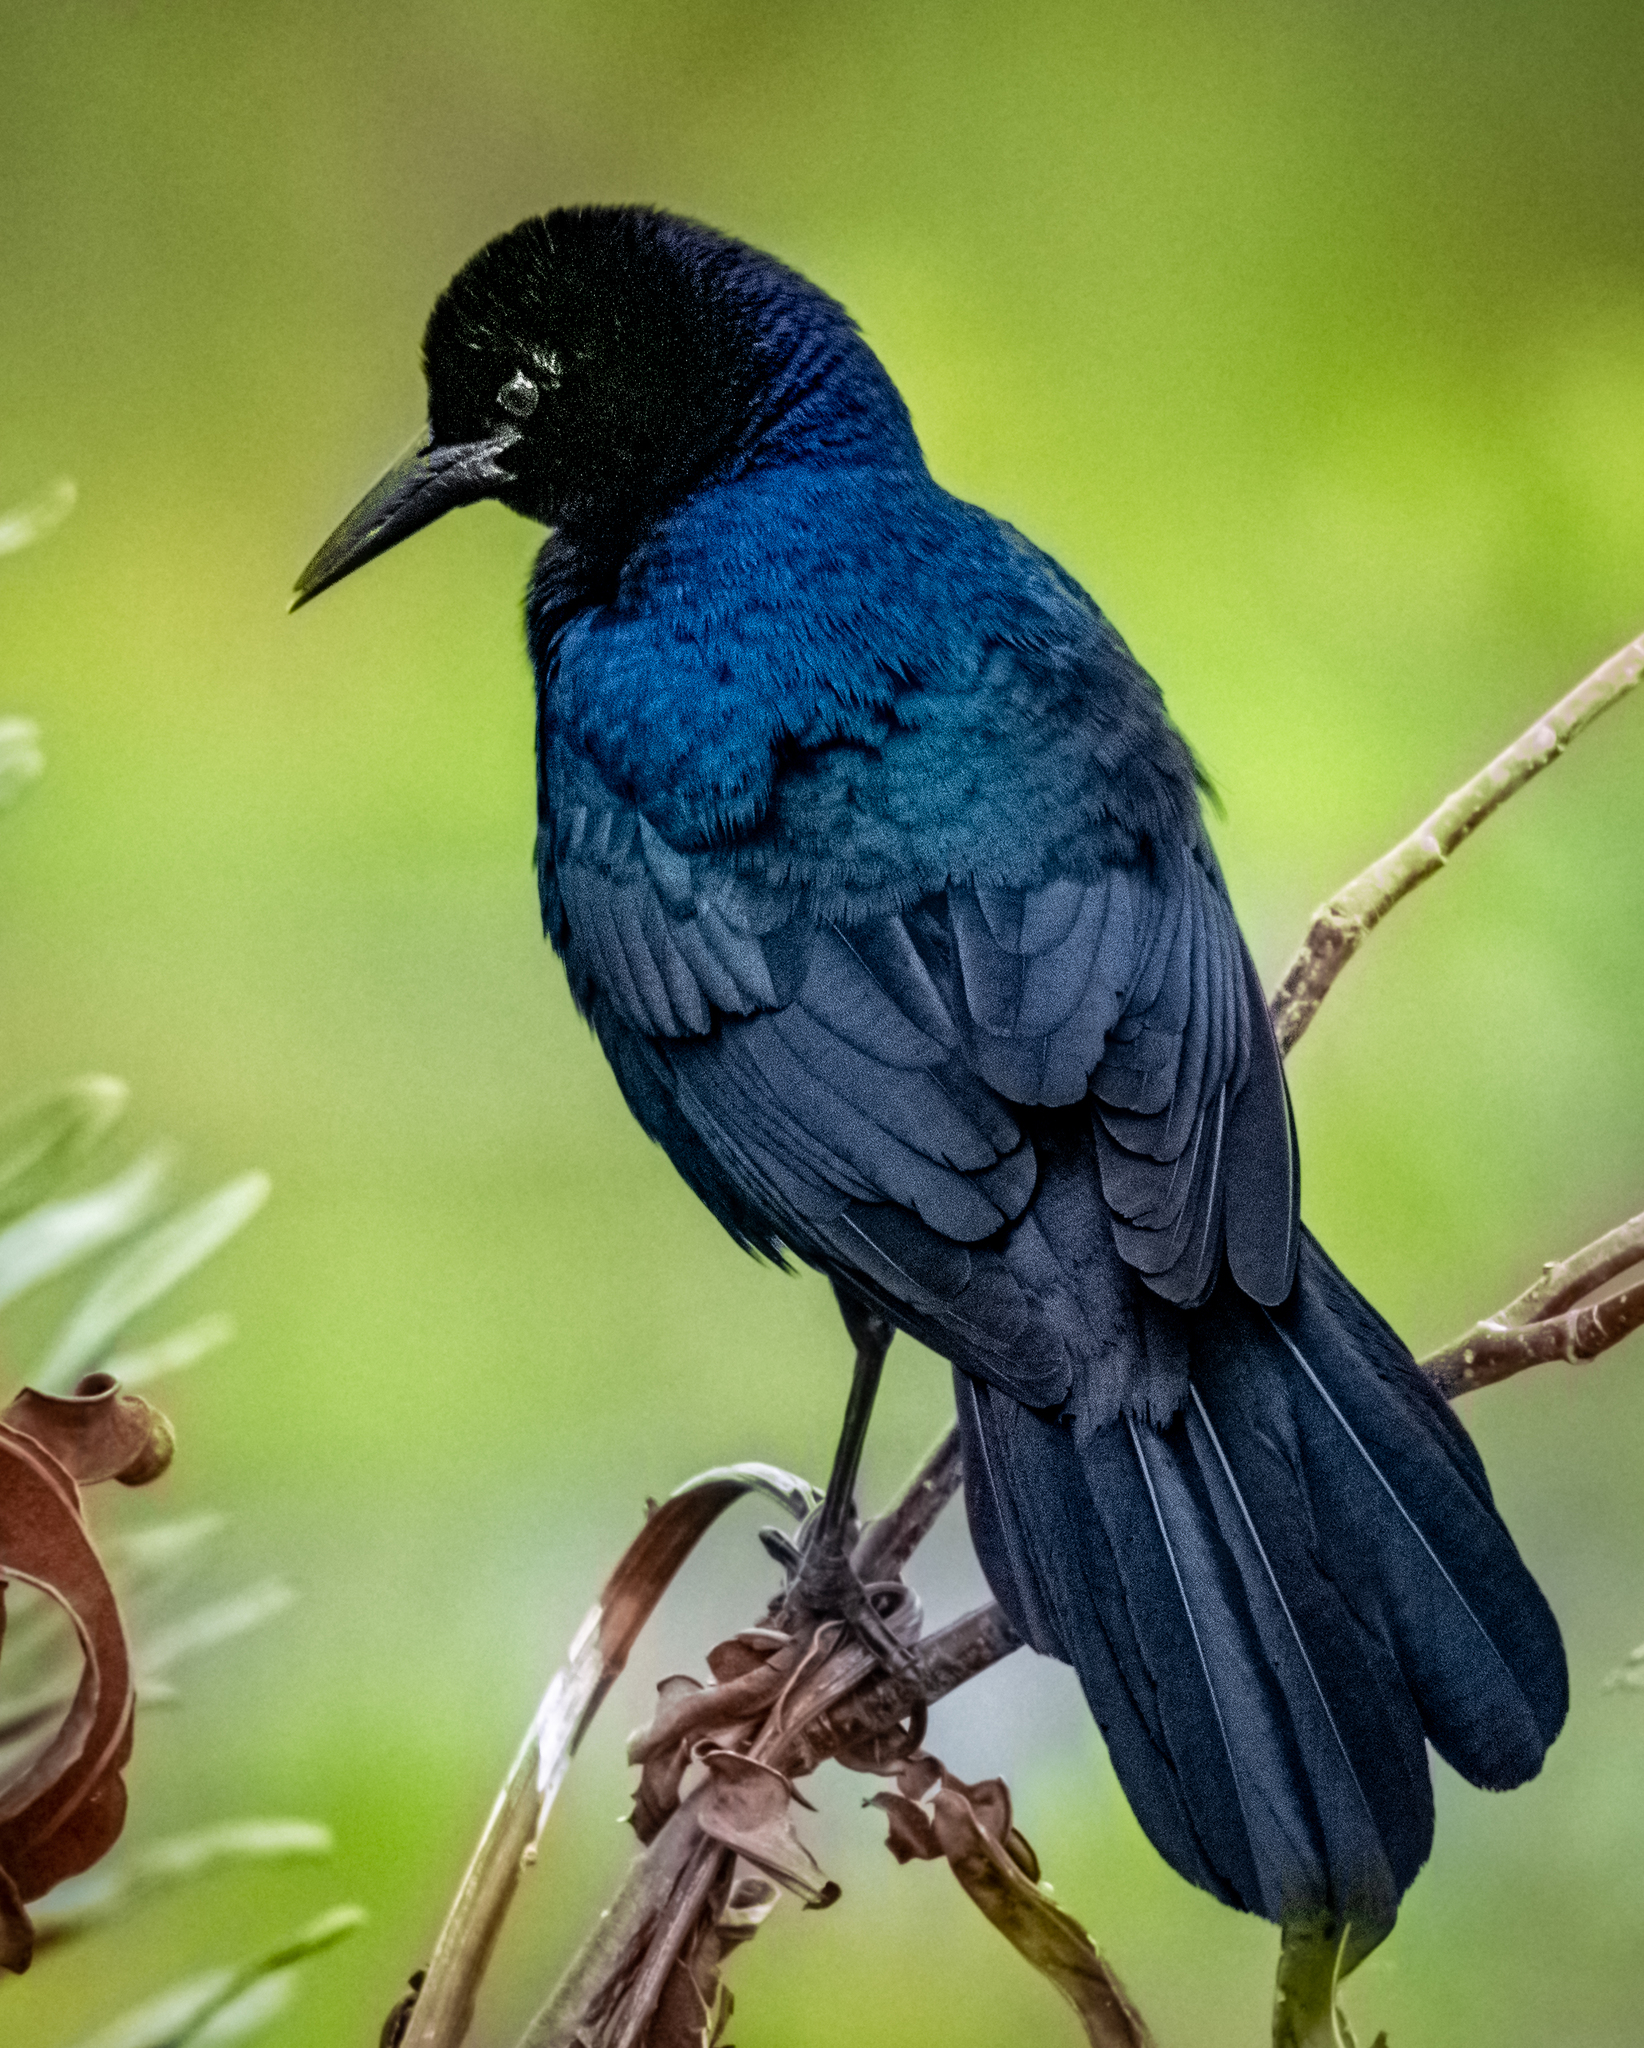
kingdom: Animalia
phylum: Chordata
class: Aves
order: Passeriformes
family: Icteridae
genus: Quiscalus
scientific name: Quiscalus major
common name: Boat-tailed grackle
